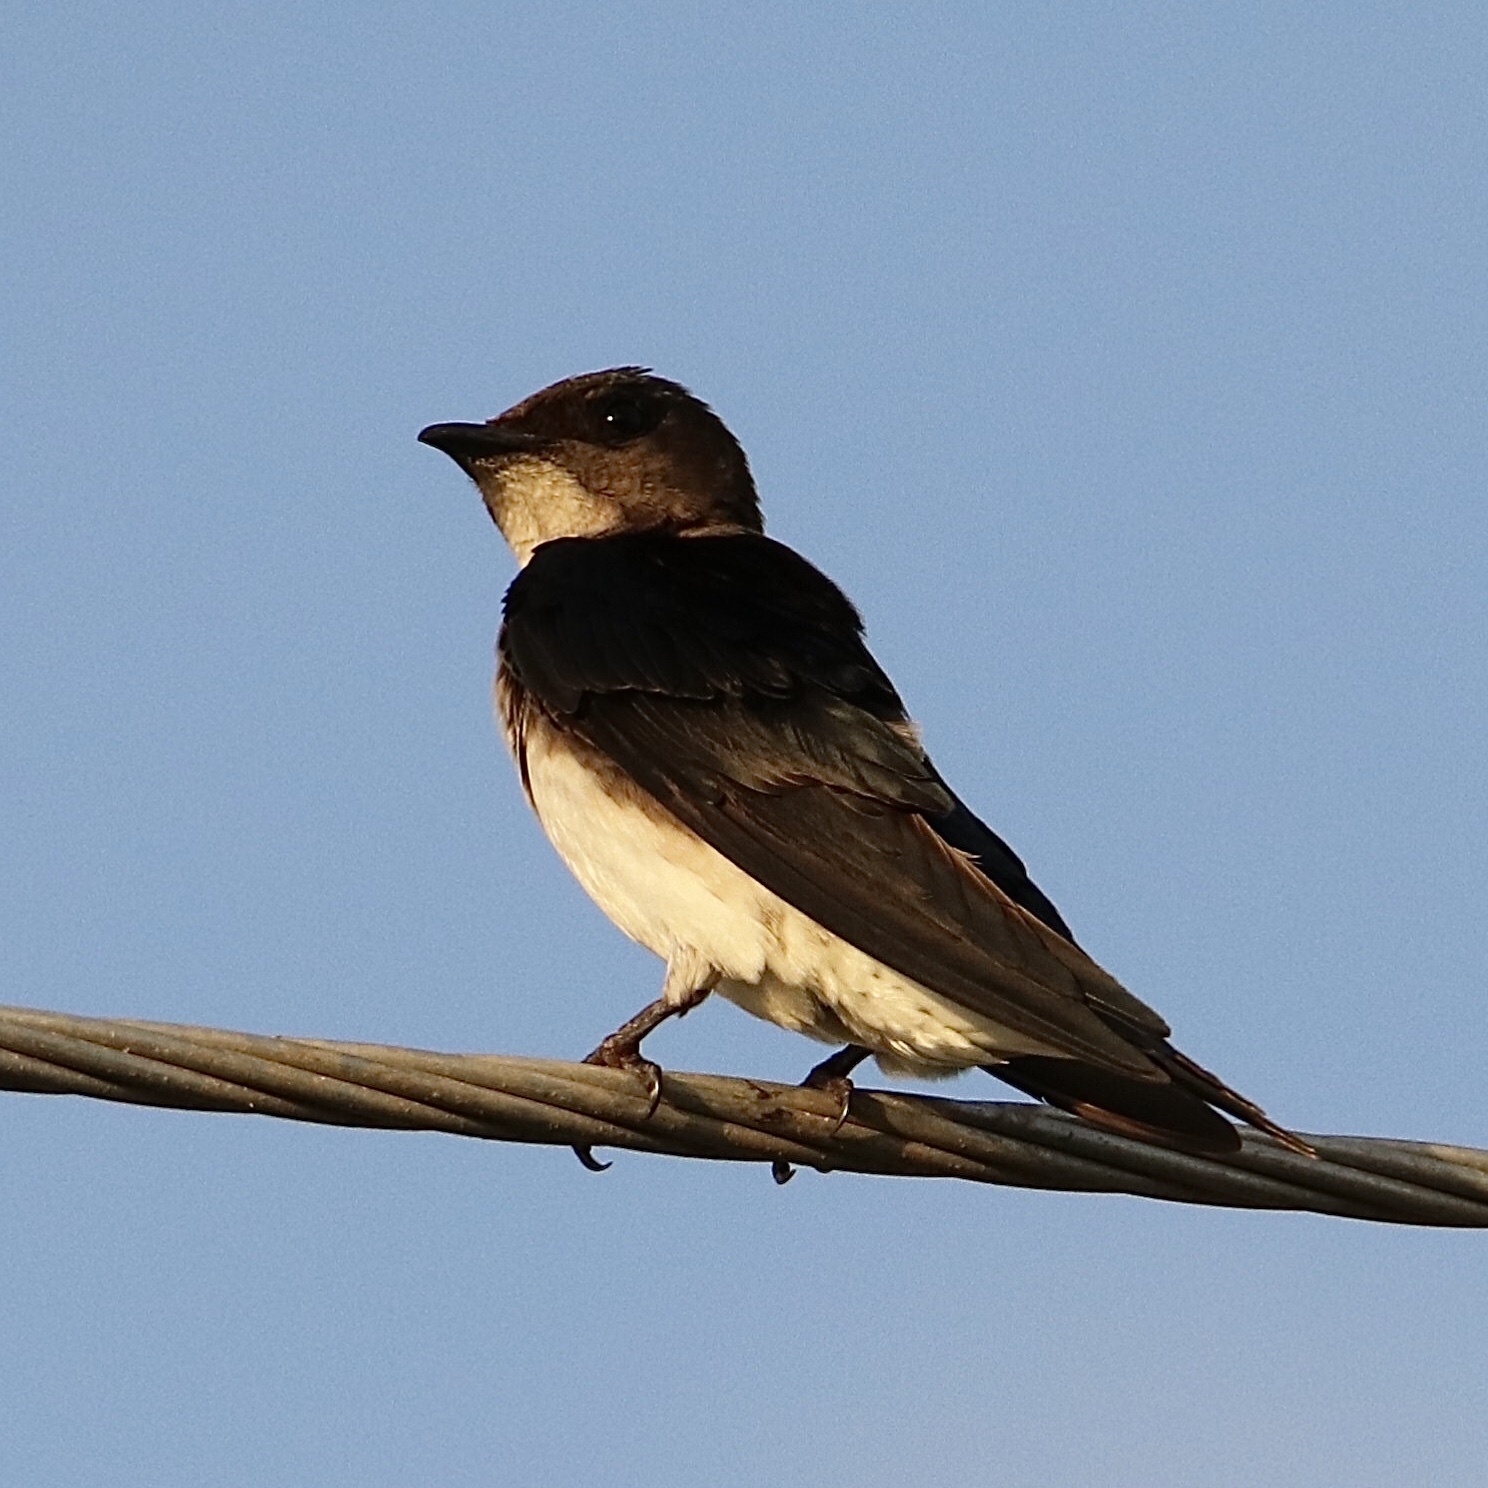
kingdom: Animalia
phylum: Chordata
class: Aves
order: Passeriformes
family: Hirundinidae
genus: Progne
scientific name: Progne chalybea
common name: Grey-breasted martin
